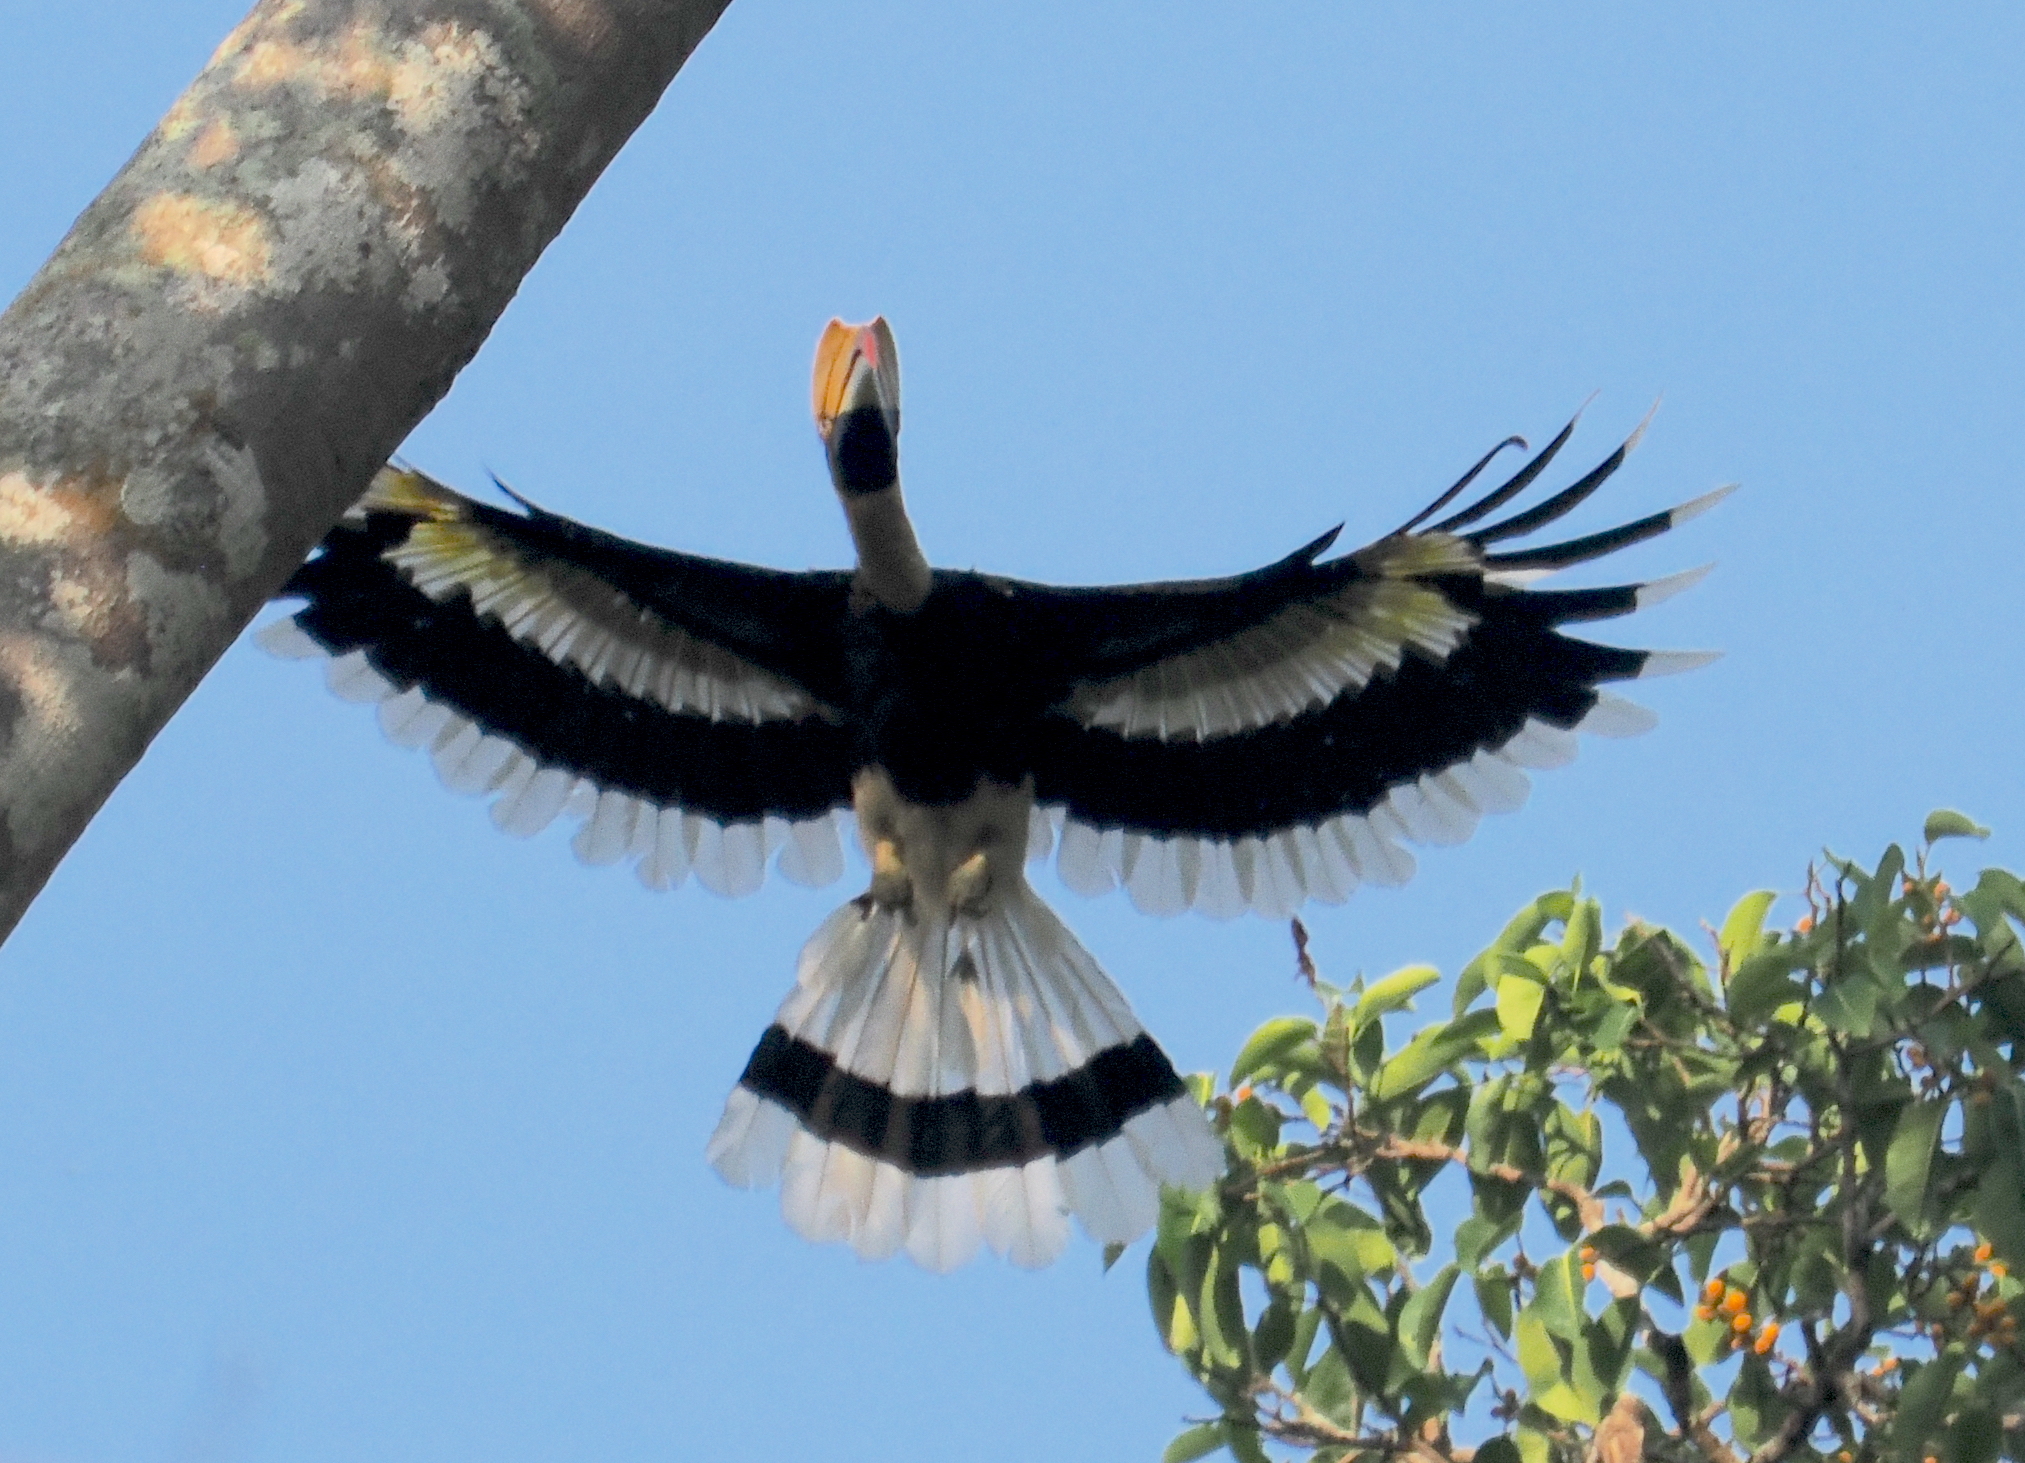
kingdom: Animalia
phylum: Chordata
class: Aves
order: Bucerotiformes
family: Bucerotidae
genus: Buceros
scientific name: Buceros bicornis
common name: Great hornbill
